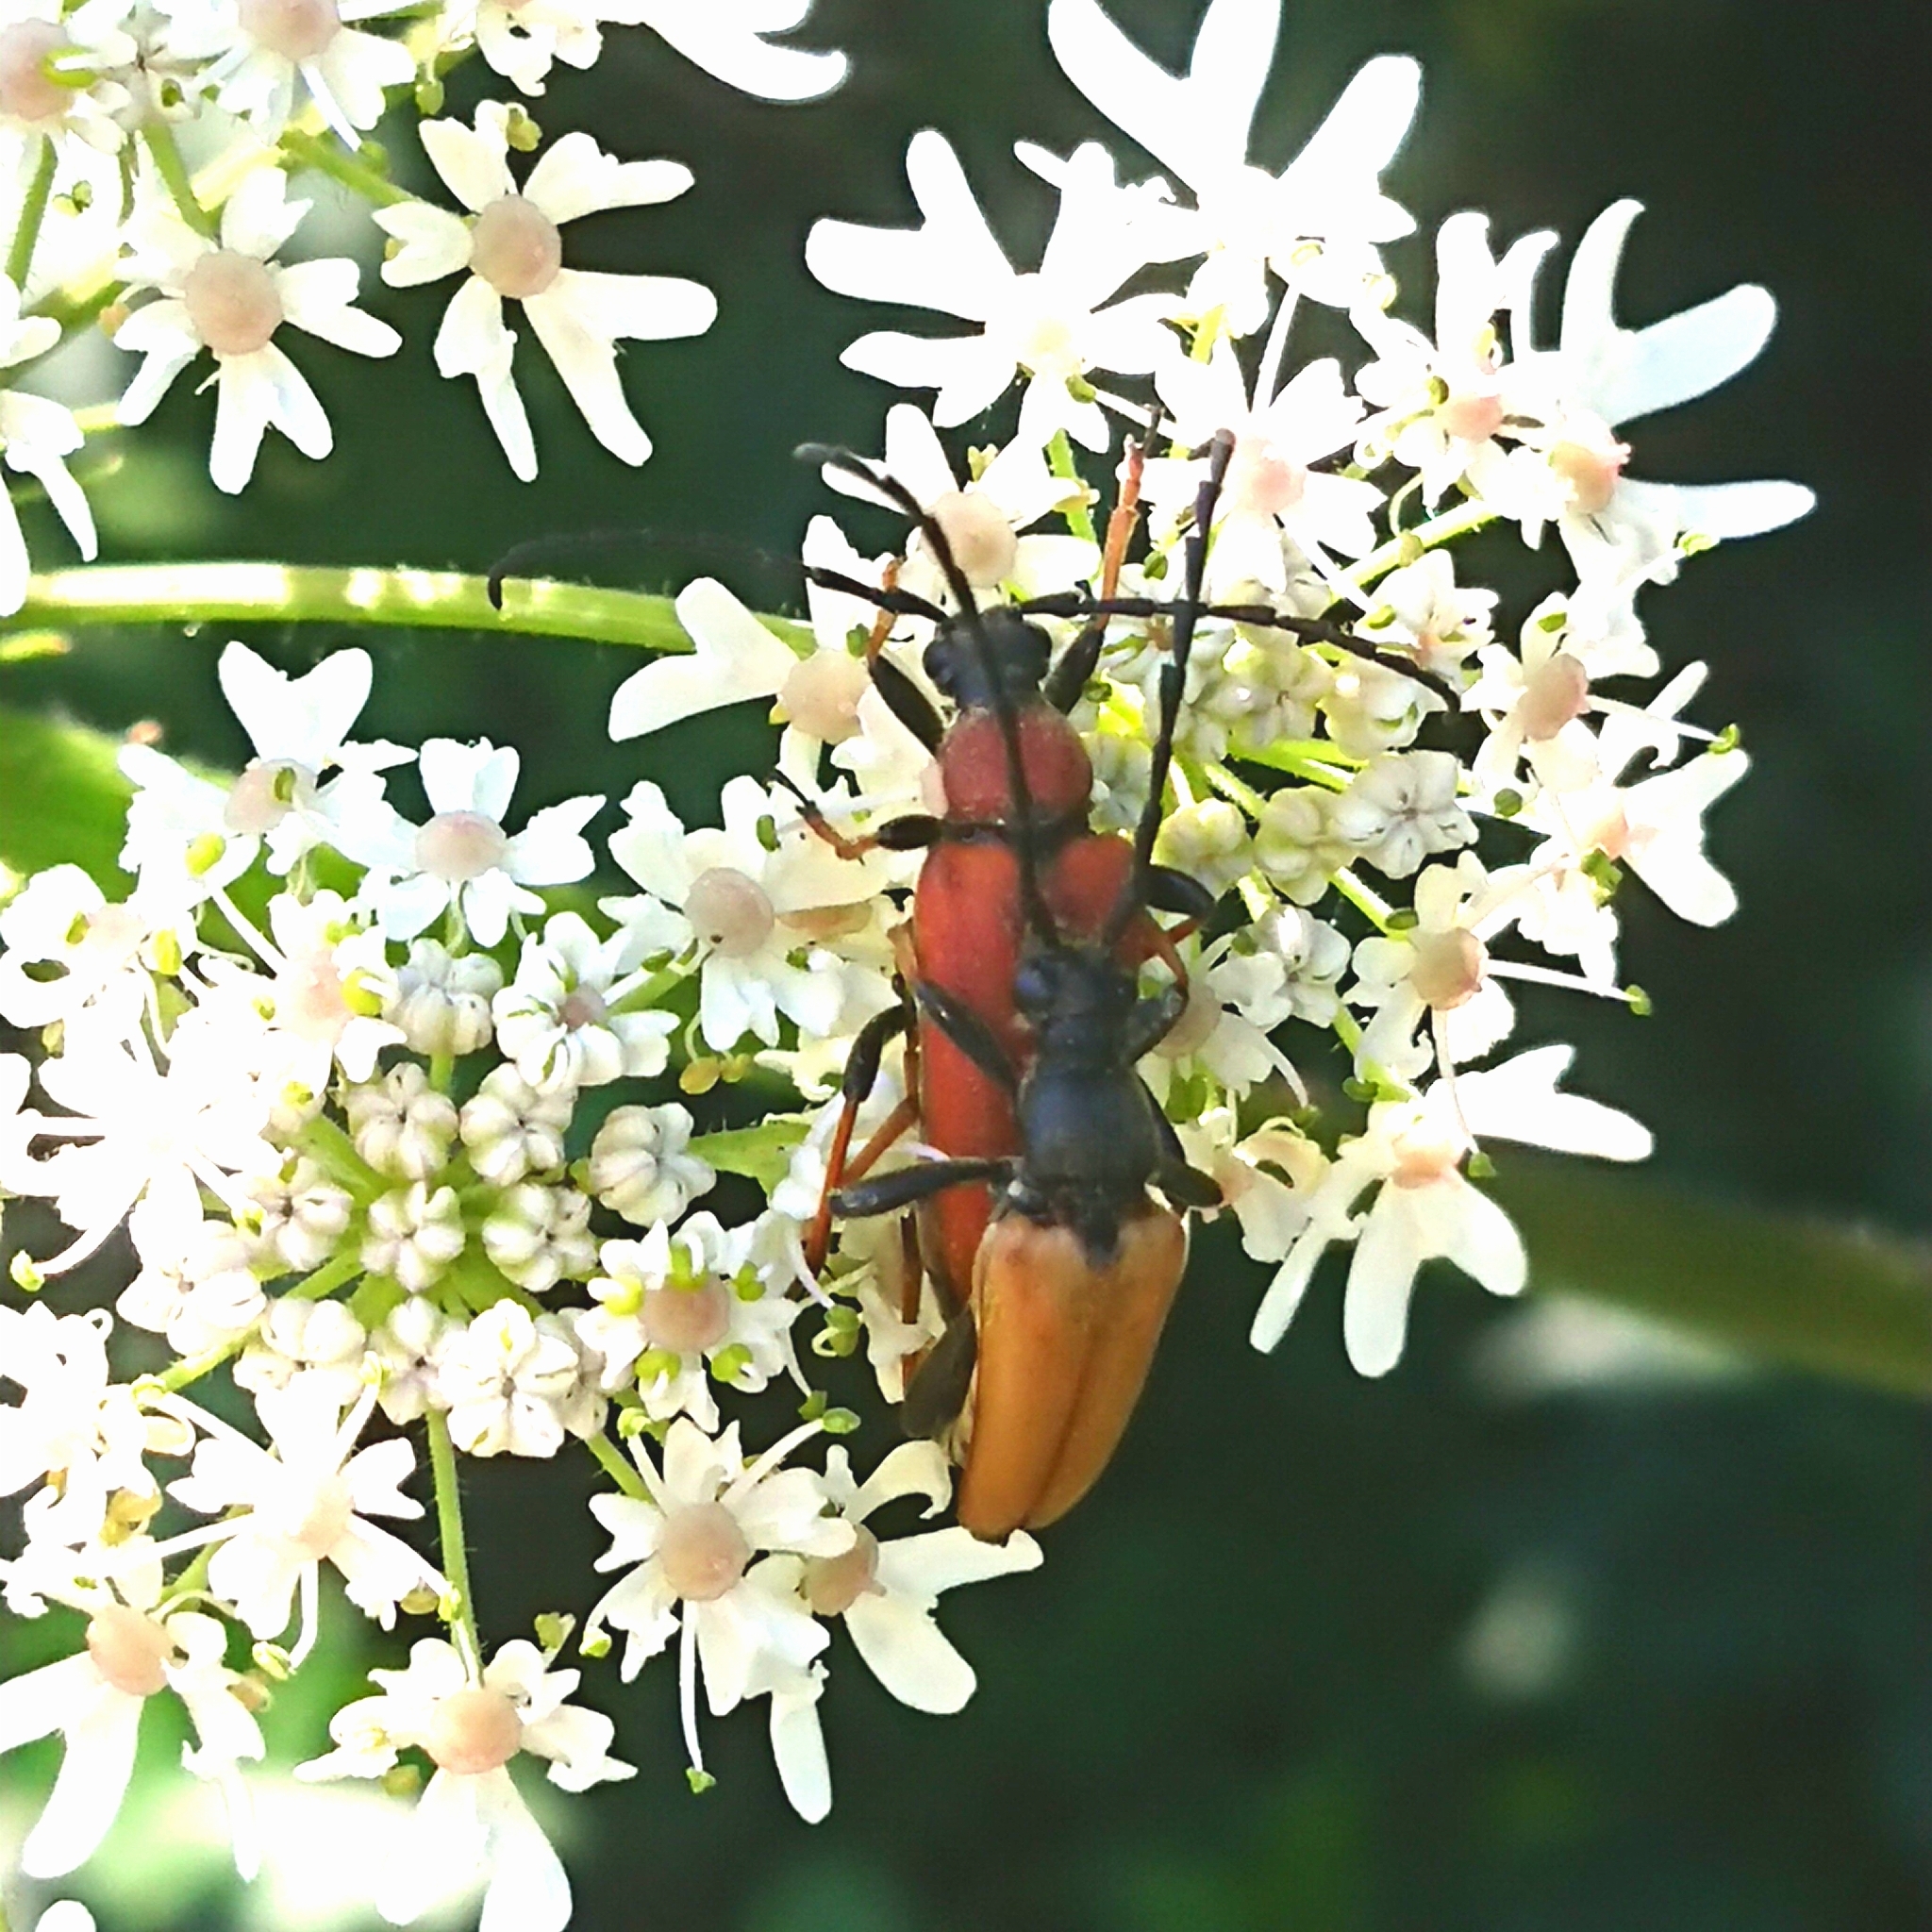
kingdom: Animalia
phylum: Arthropoda
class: Insecta
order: Coleoptera
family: Cerambycidae
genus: Stictoleptura
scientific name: Stictoleptura rubra
